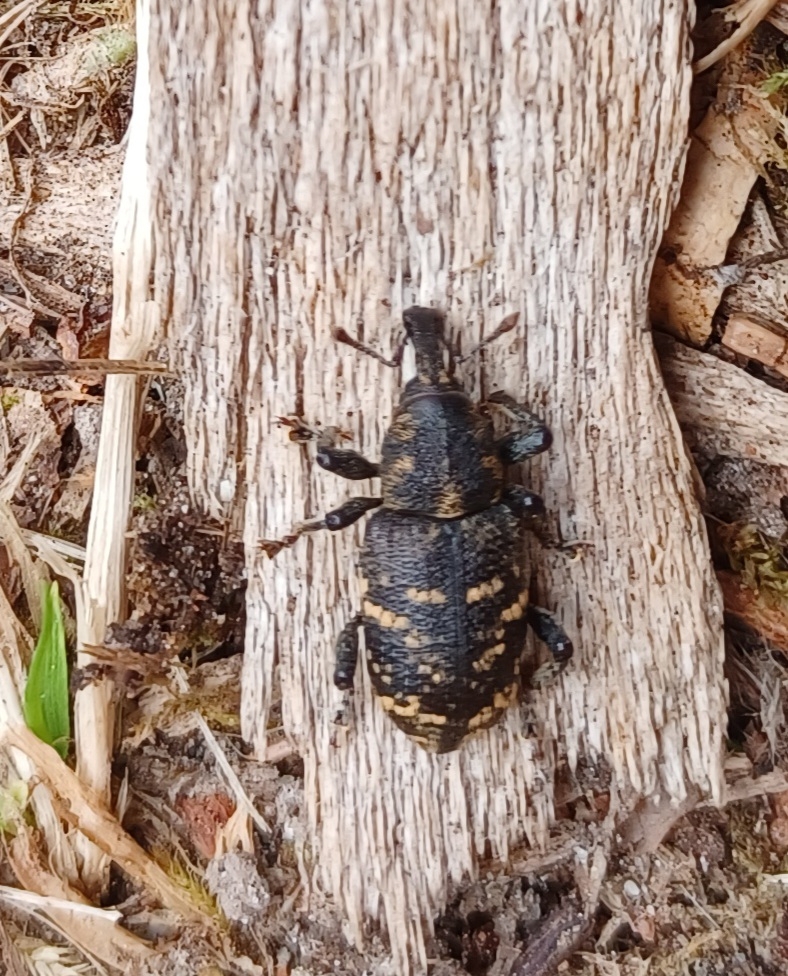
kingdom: Animalia
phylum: Arthropoda
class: Insecta
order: Coleoptera
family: Curculionidae
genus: Hylobius
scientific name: Hylobius abietis
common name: Large pine weevil
